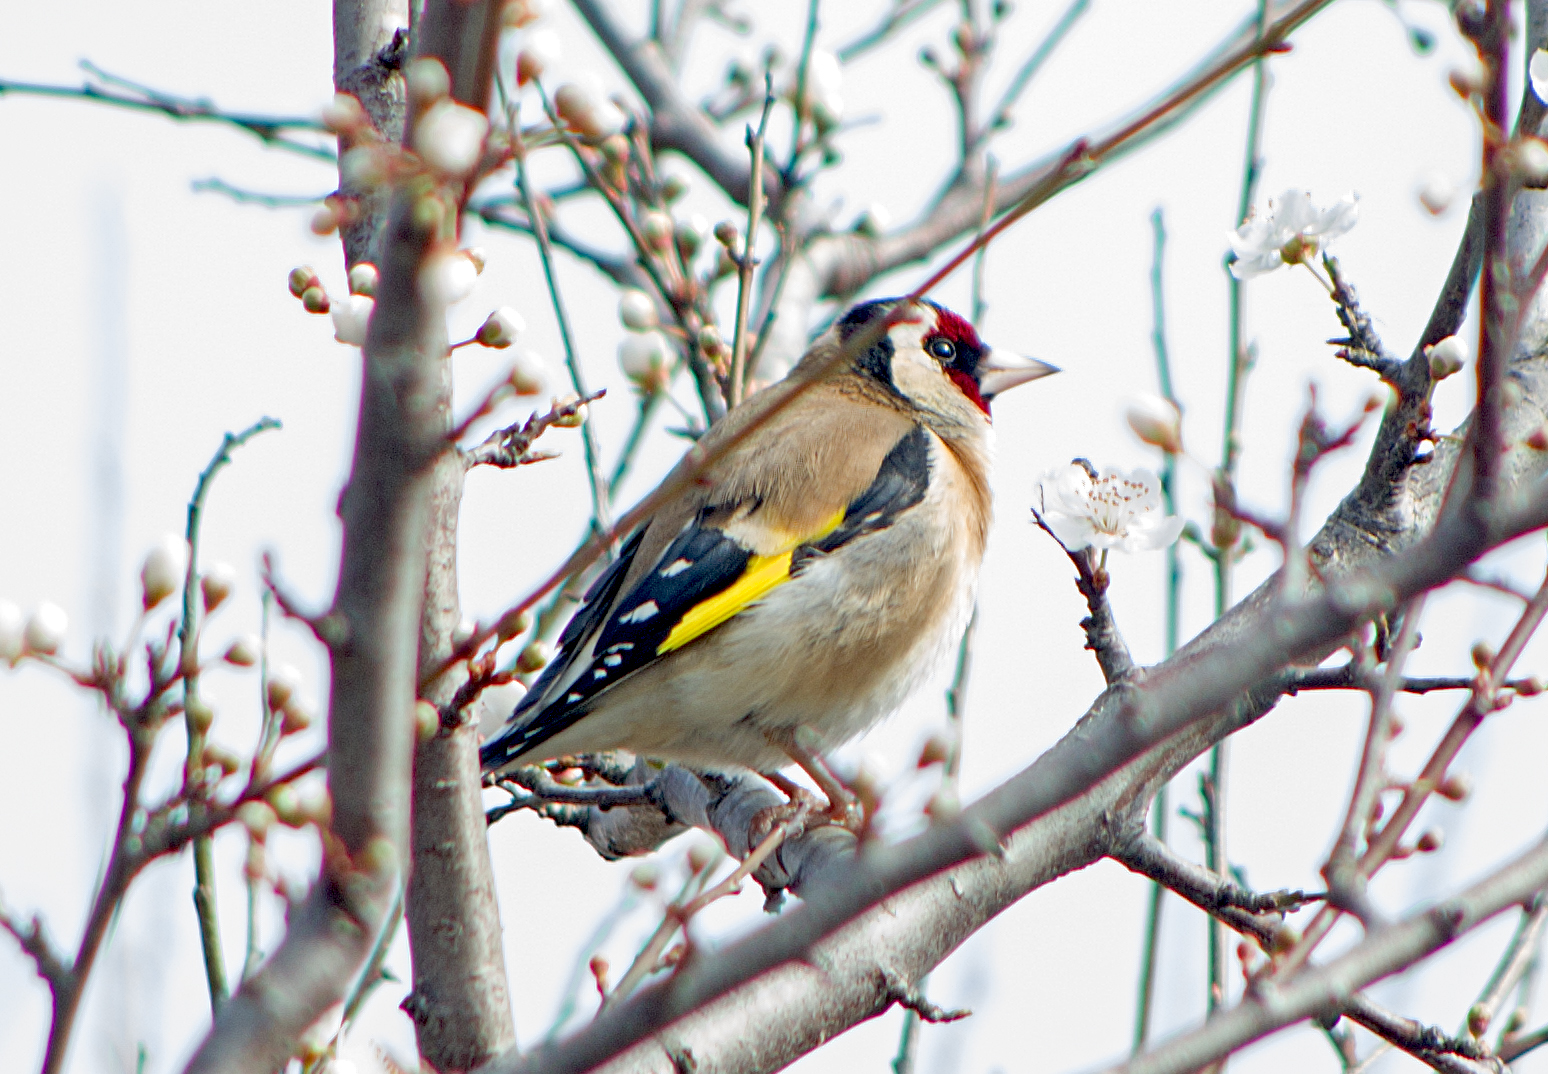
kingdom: Animalia
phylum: Chordata
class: Aves
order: Passeriformes
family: Fringillidae
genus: Carduelis
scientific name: Carduelis carduelis
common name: European goldfinch
